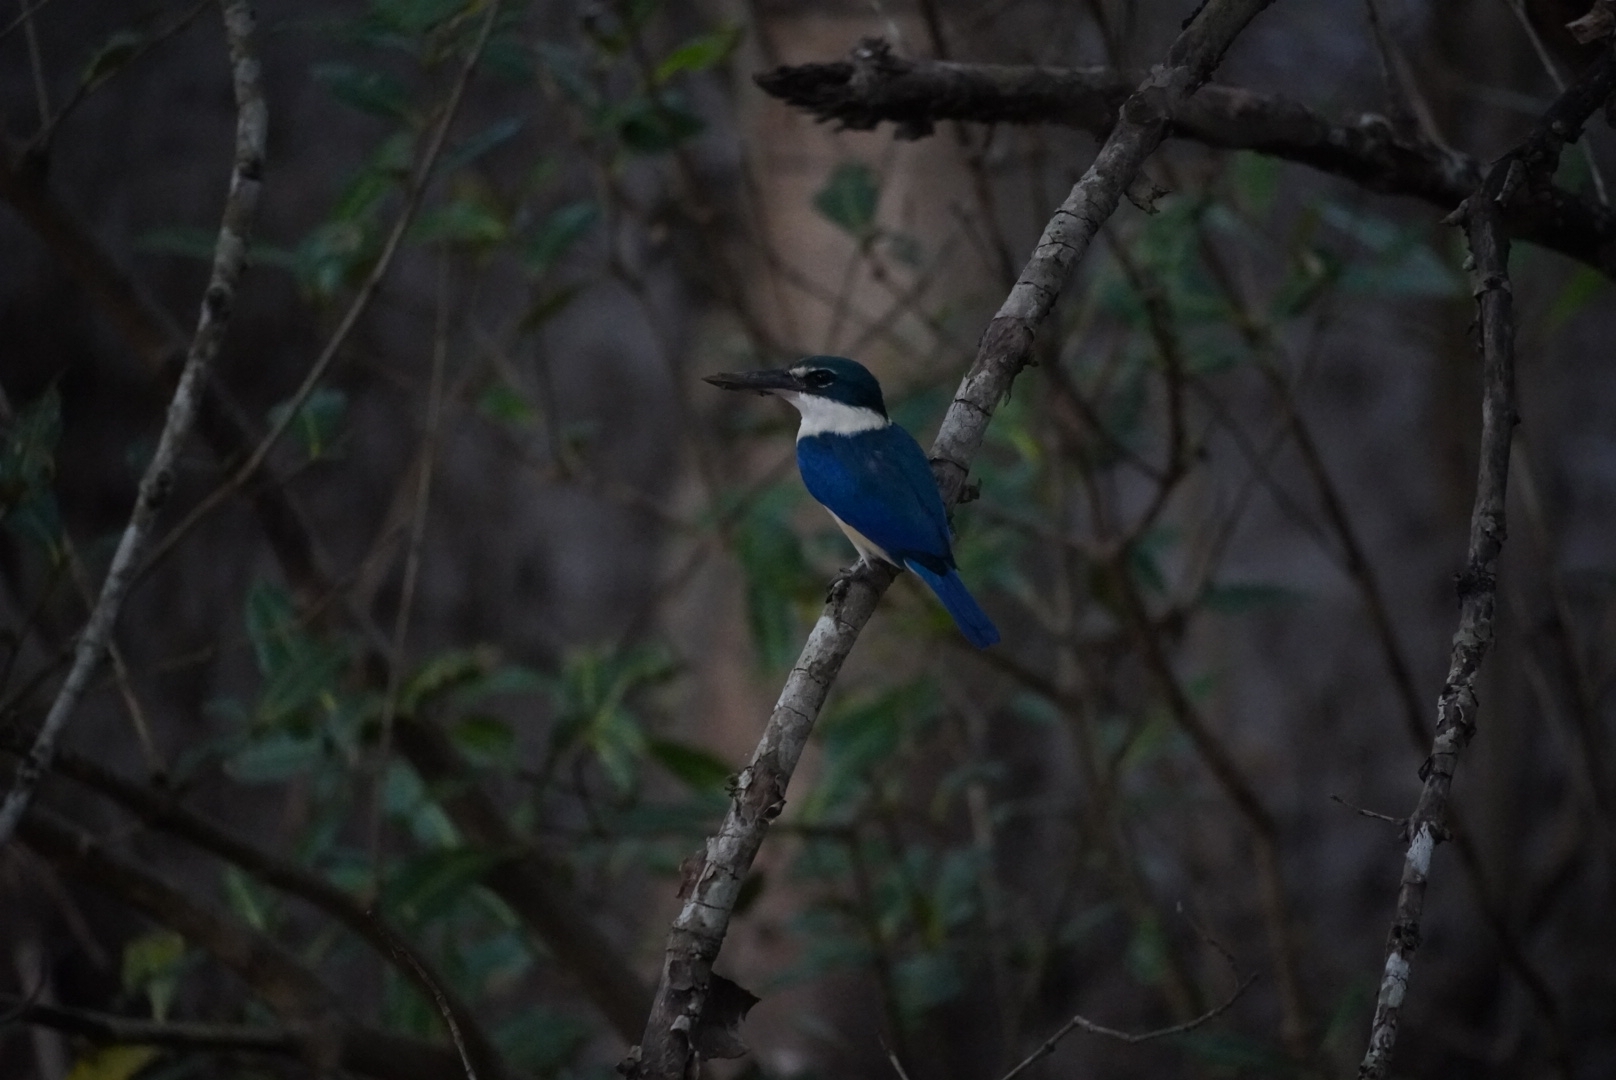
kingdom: Animalia
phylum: Chordata
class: Aves
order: Coraciiformes
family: Alcedinidae
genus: Todiramphus
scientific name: Todiramphus chloris
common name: Collared kingfisher
